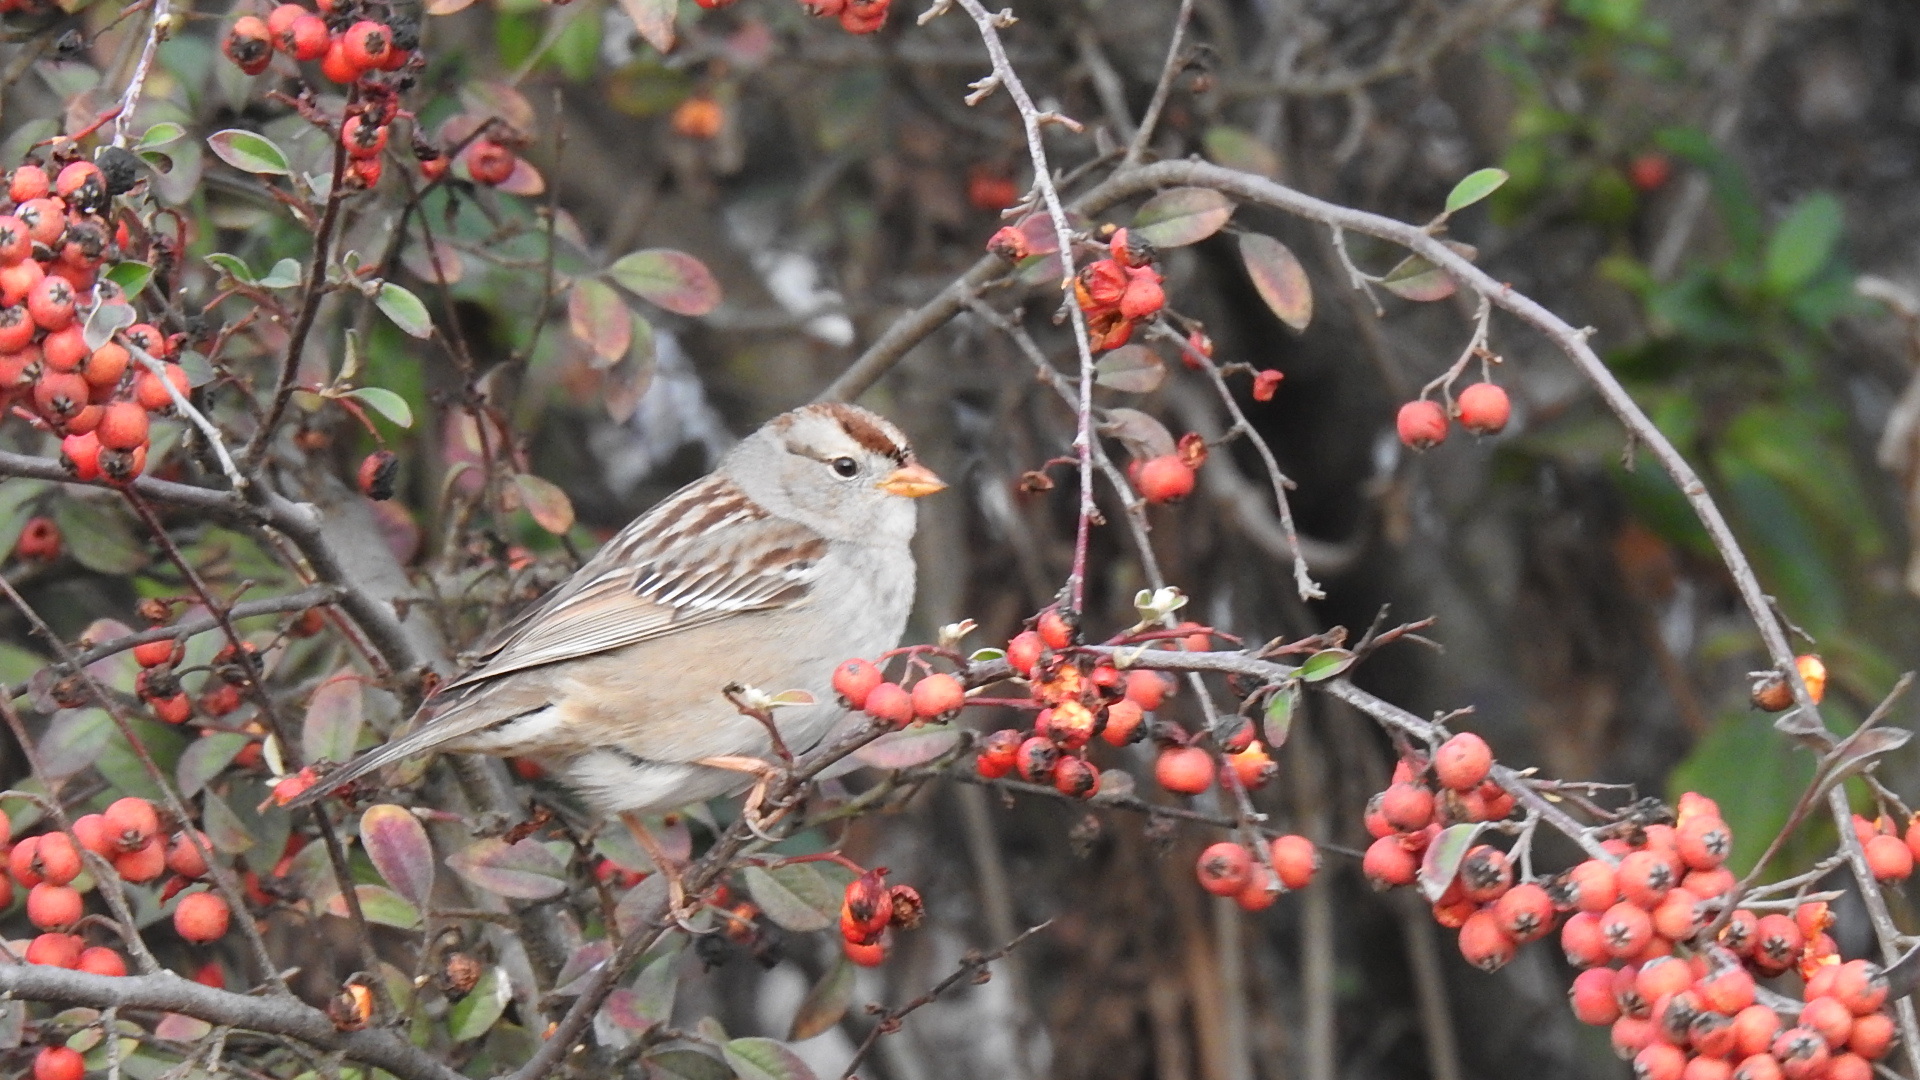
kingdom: Animalia
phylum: Chordata
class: Aves
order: Passeriformes
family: Passerellidae
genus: Zonotrichia
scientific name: Zonotrichia leucophrys
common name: White-crowned sparrow
